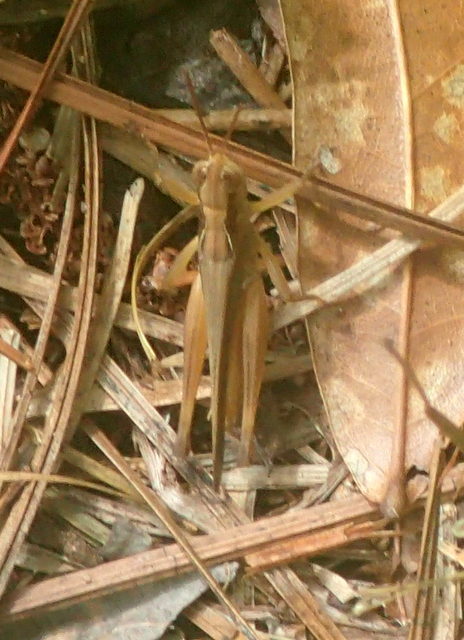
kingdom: Animalia
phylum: Arthropoda
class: Insecta
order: Orthoptera
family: Acrididae
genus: Orphulella
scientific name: Orphulella pelidna
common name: Spotted-wing grasshopper
